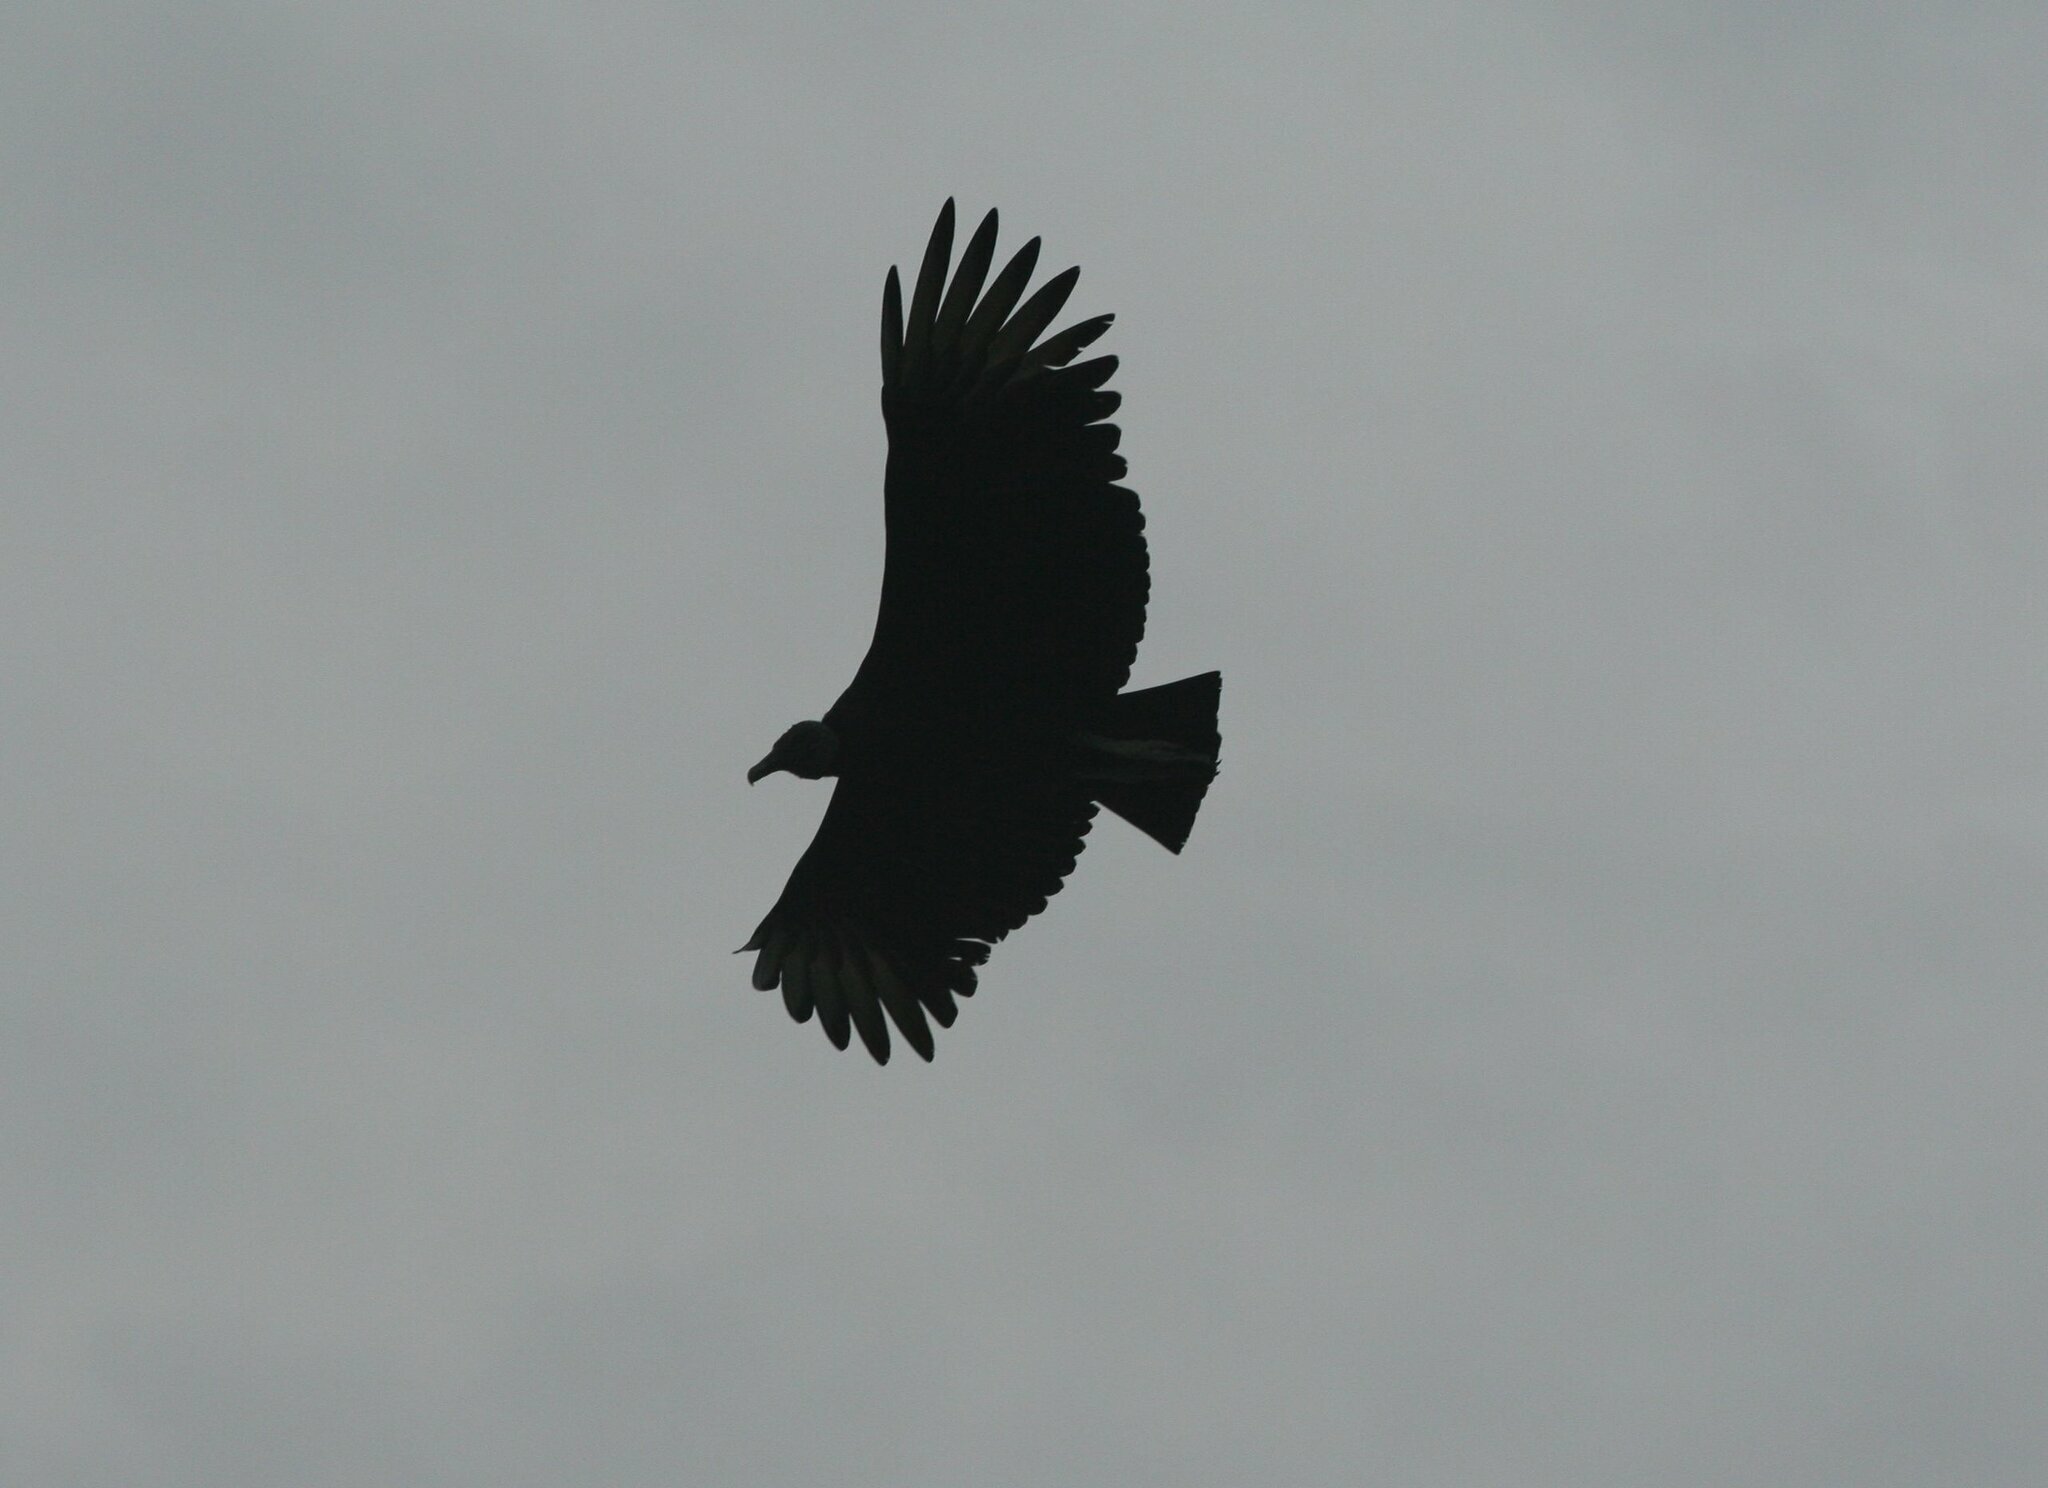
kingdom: Animalia
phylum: Chordata
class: Aves
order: Accipitriformes
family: Cathartidae
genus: Coragyps
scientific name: Coragyps atratus
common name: Black vulture
